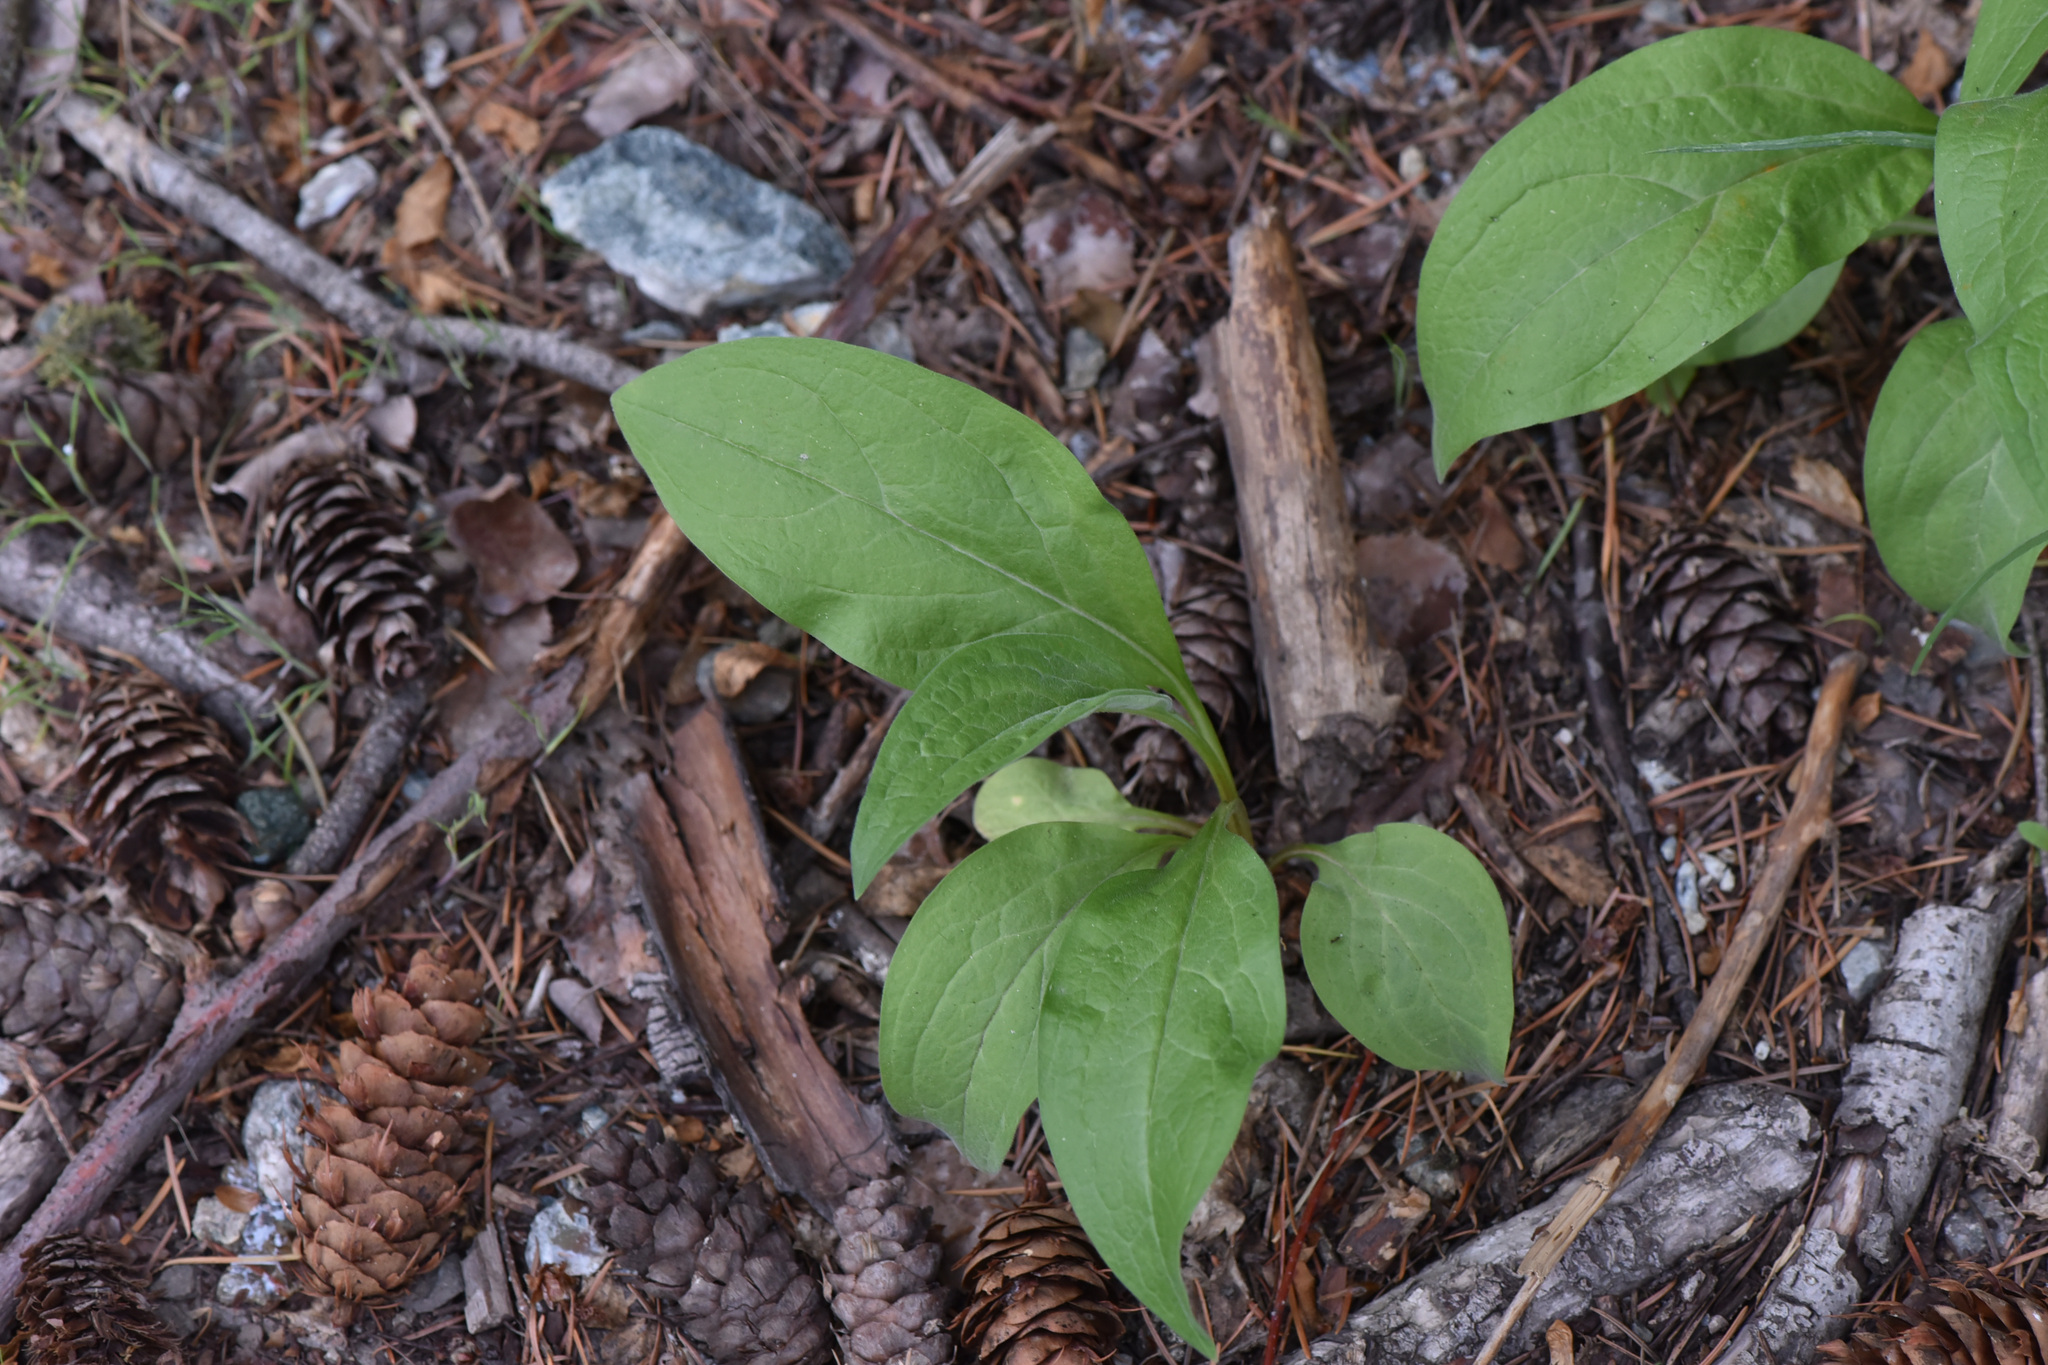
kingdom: Plantae
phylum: Tracheophyta
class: Magnoliopsida
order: Boraginales
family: Boraginaceae
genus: Cynoglossum
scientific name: Cynoglossum officinale
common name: Hound's-tongue
